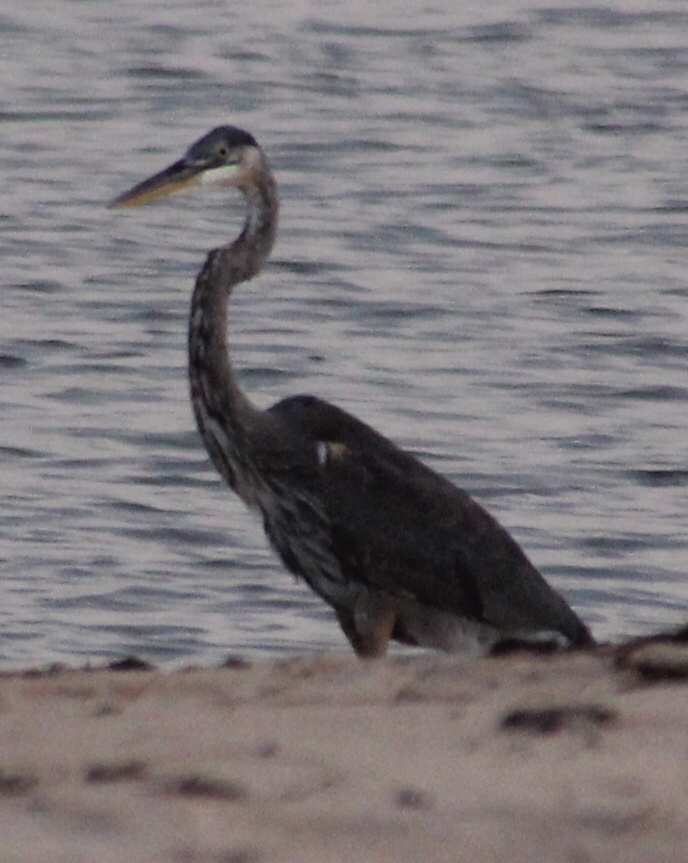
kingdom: Animalia
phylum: Chordata
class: Aves
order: Pelecaniformes
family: Ardeidae
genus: Ardea
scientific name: Ardea herodias
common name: Great blue heron
